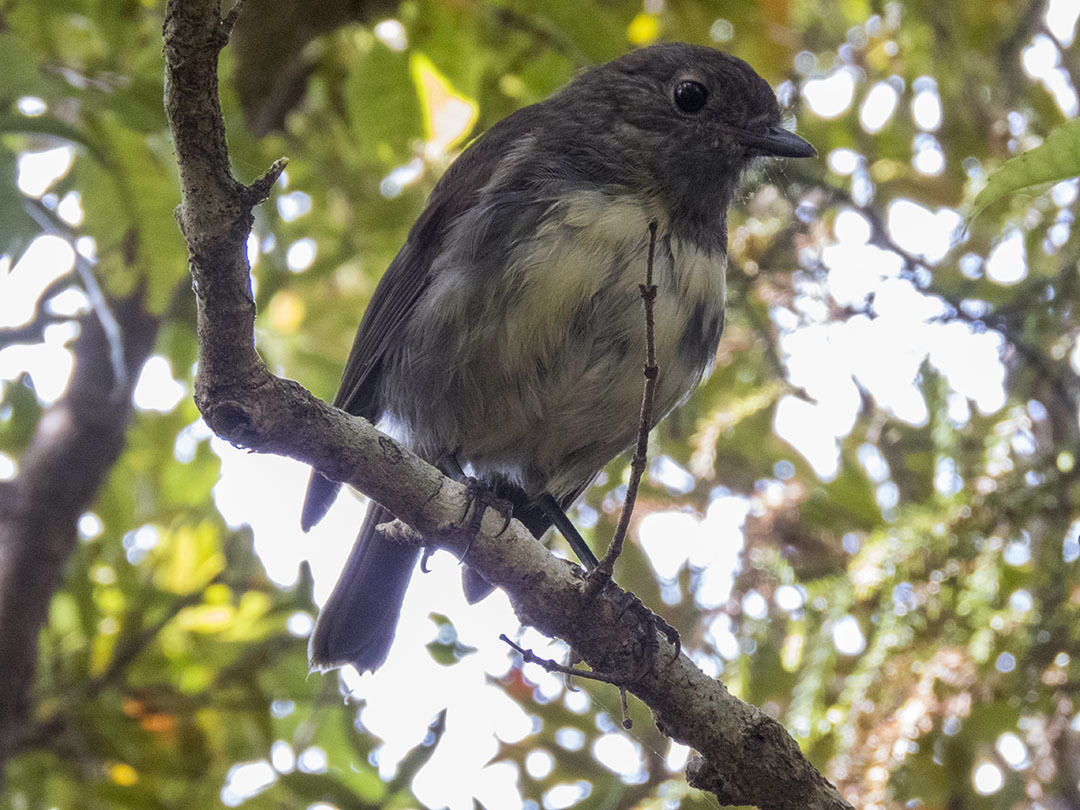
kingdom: Animalia
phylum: Chordata
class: Aves
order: Passeriformes
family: Petroicidae
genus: Petroica
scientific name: Petroica australis
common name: New zealand robin
